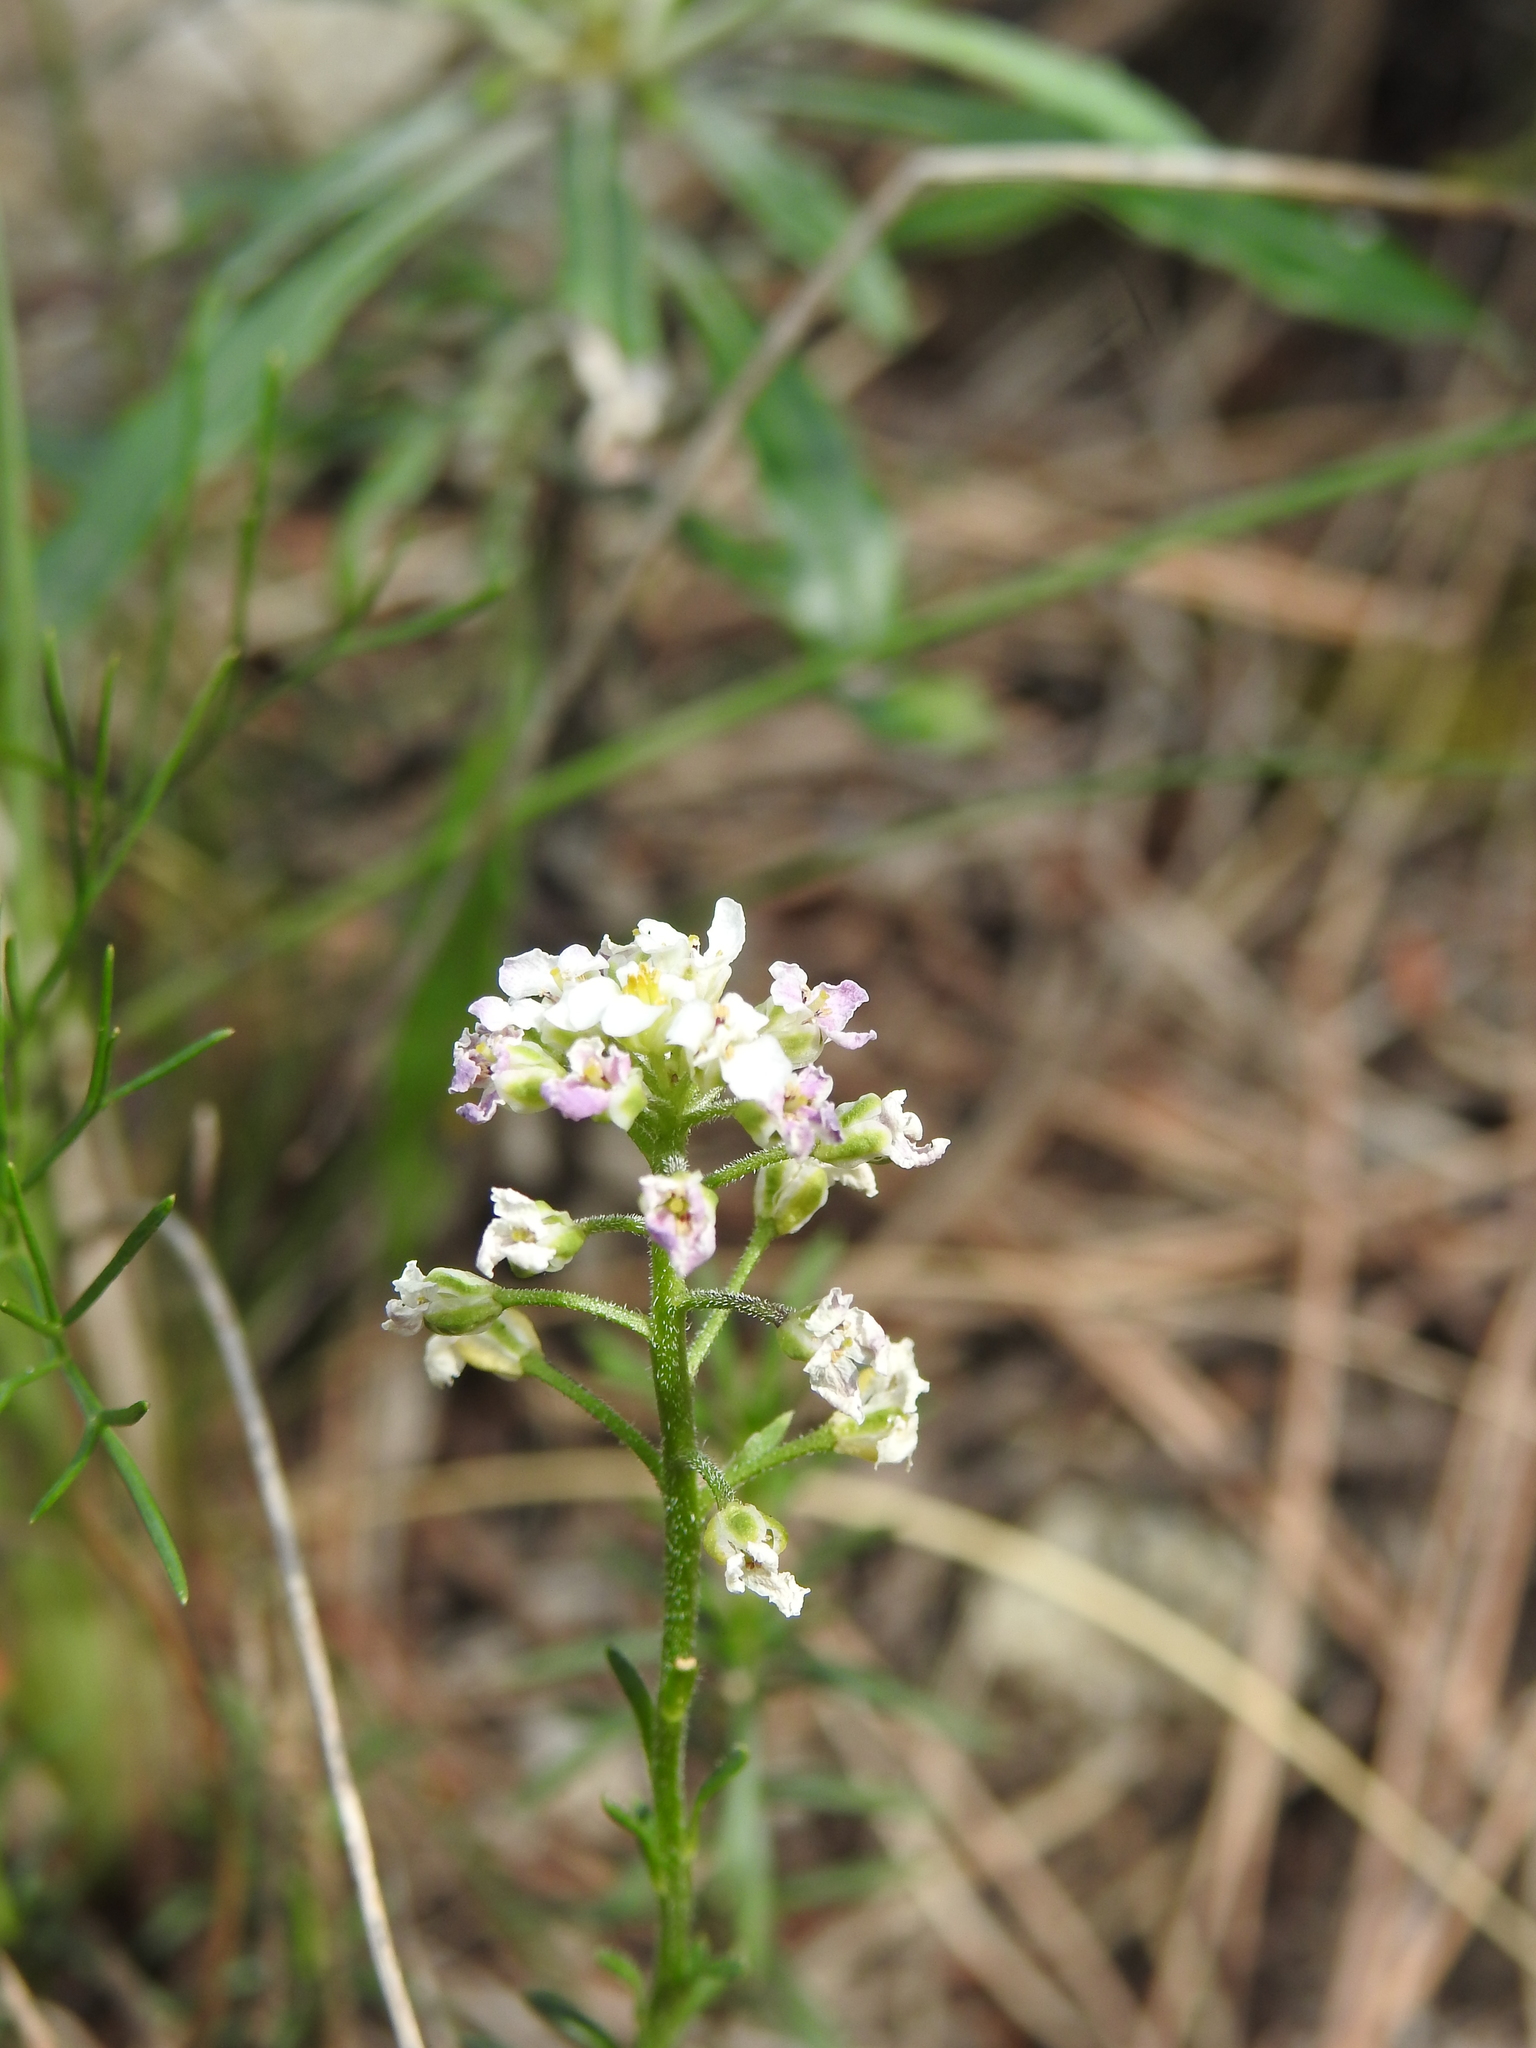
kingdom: Plantae
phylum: Tracheophyta
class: Magnoliopsida
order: Brassicales
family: Brassicaceae
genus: Iberis
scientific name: Iberis saxatilis
